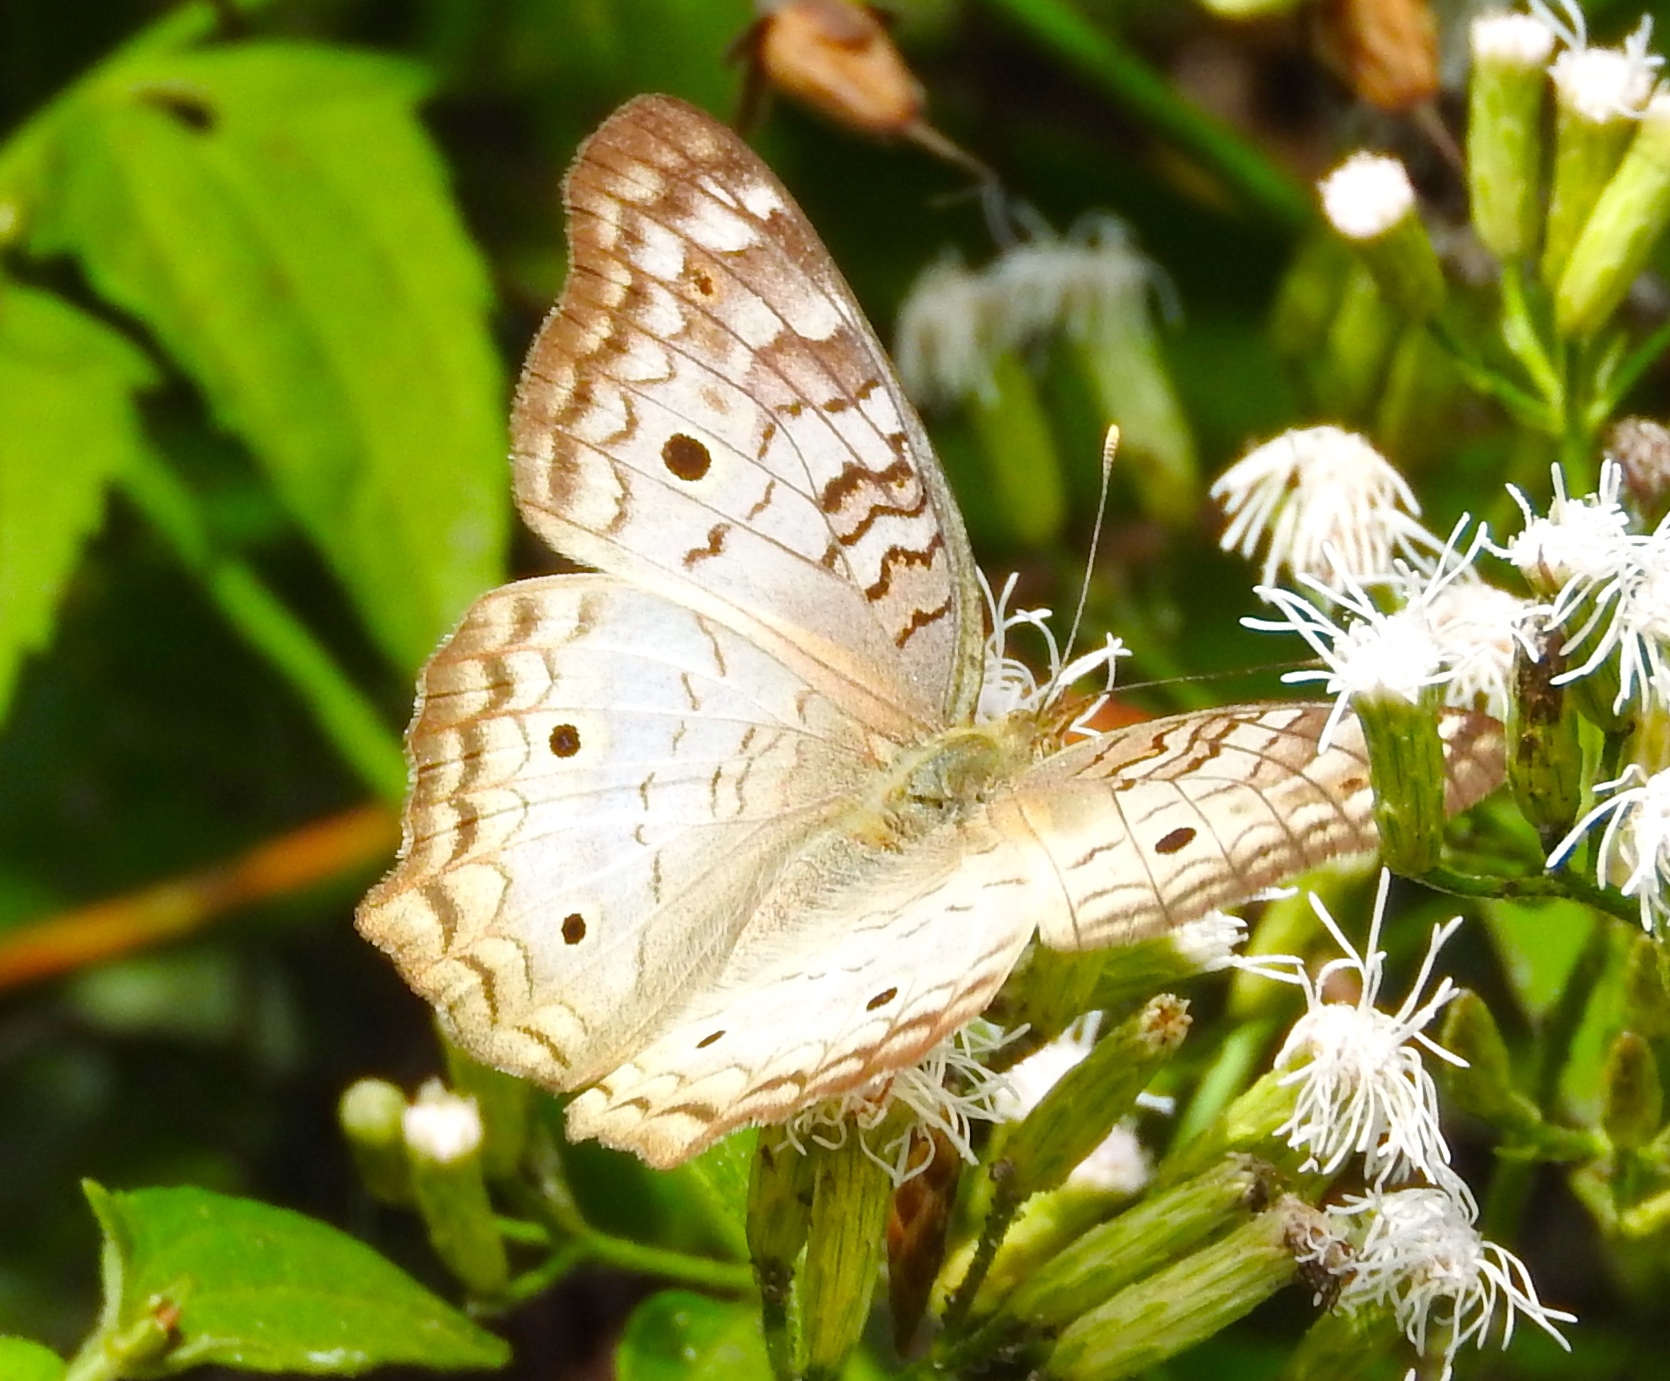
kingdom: Animalia
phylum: Arthropoda
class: Insecta
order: Lepidoptera
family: Nymphalidae
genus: Anartia
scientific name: Anartia jatrophae
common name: White peacock
